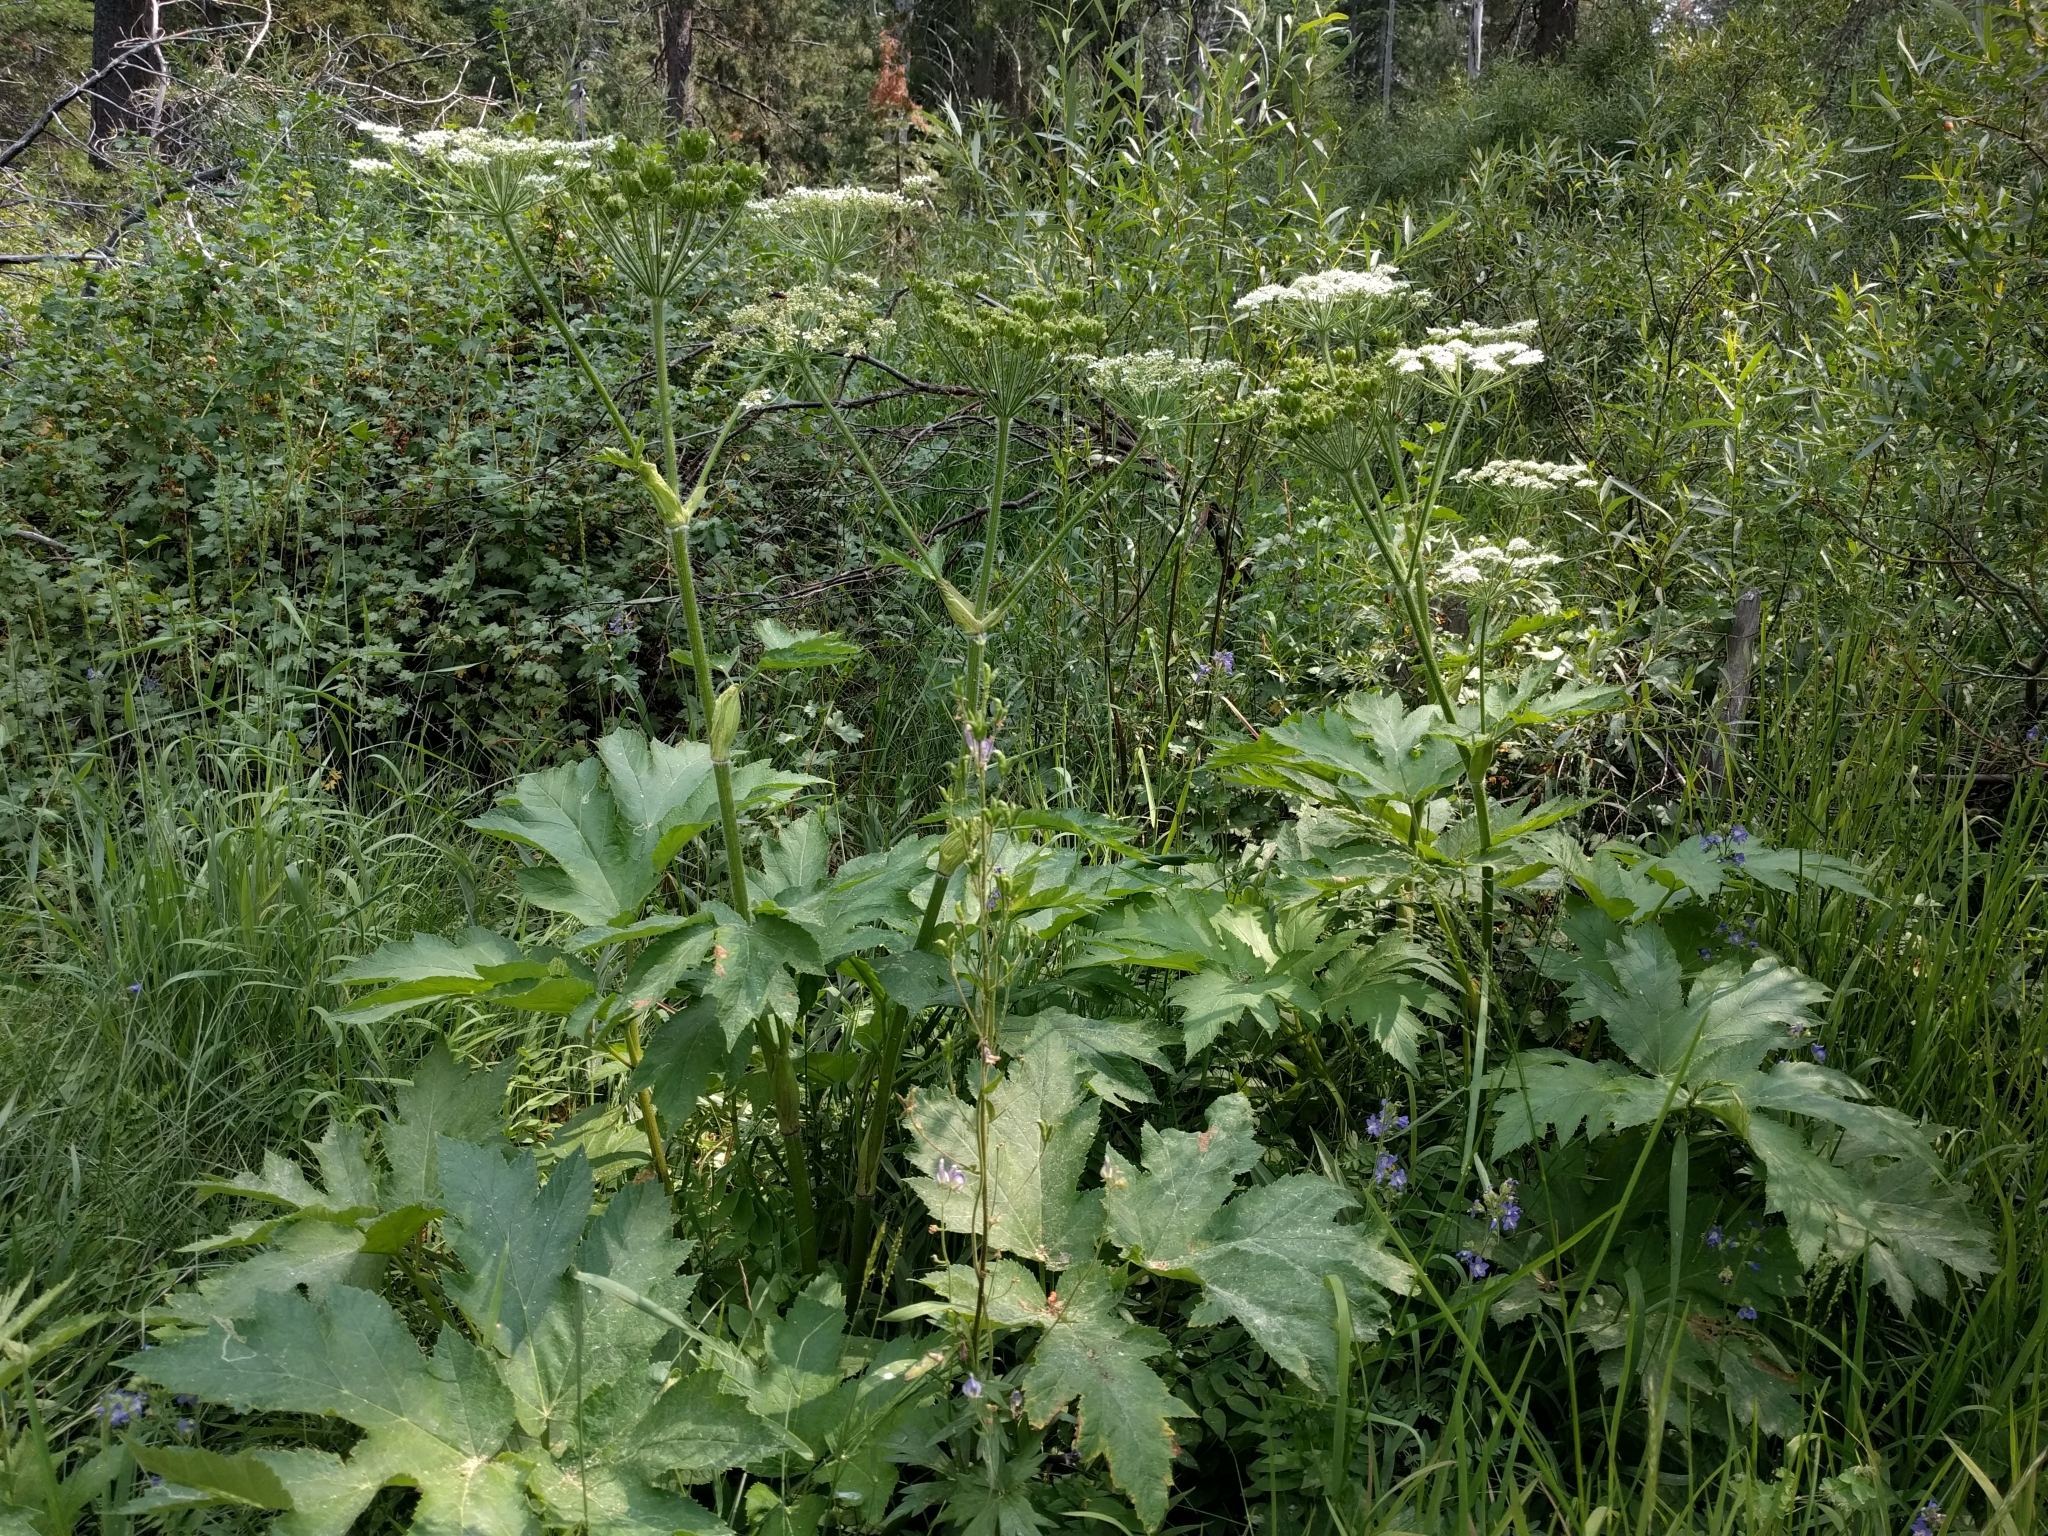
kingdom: Plantae
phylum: Tracheophyta
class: Magnoliopsida
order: Apiales
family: Apiaceae
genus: Heracleum
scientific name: Heracleum maximum
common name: American cow parsnip
